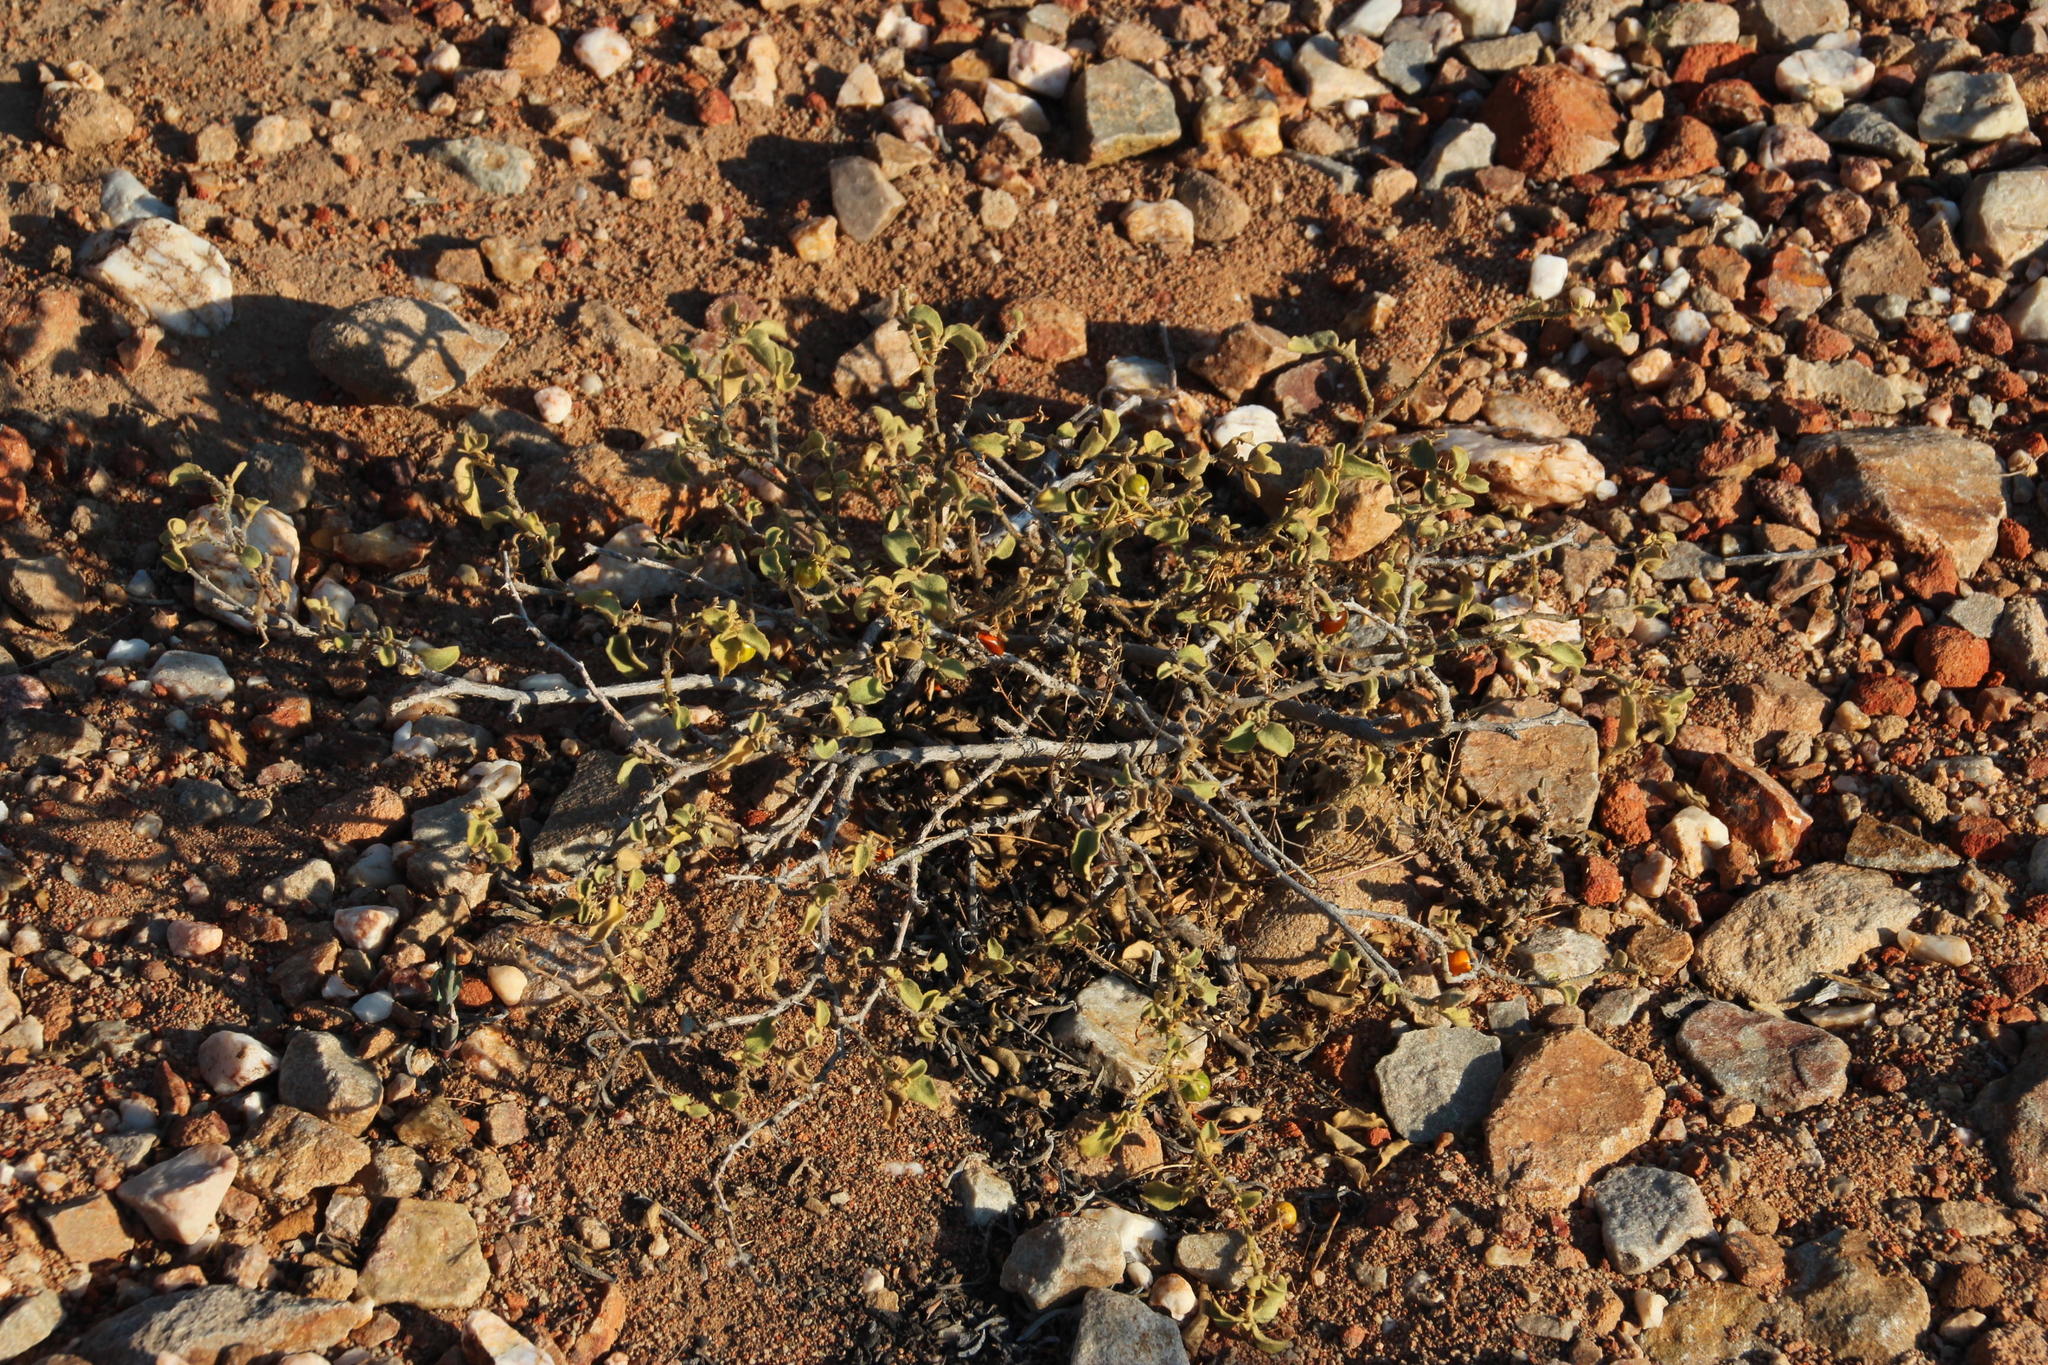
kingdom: Plantae
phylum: Tracheophyta
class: Magnoliopsida
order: Solanales
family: Solanaceae
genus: Solanum
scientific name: Solanum tomentosum
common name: Wild aubergine
